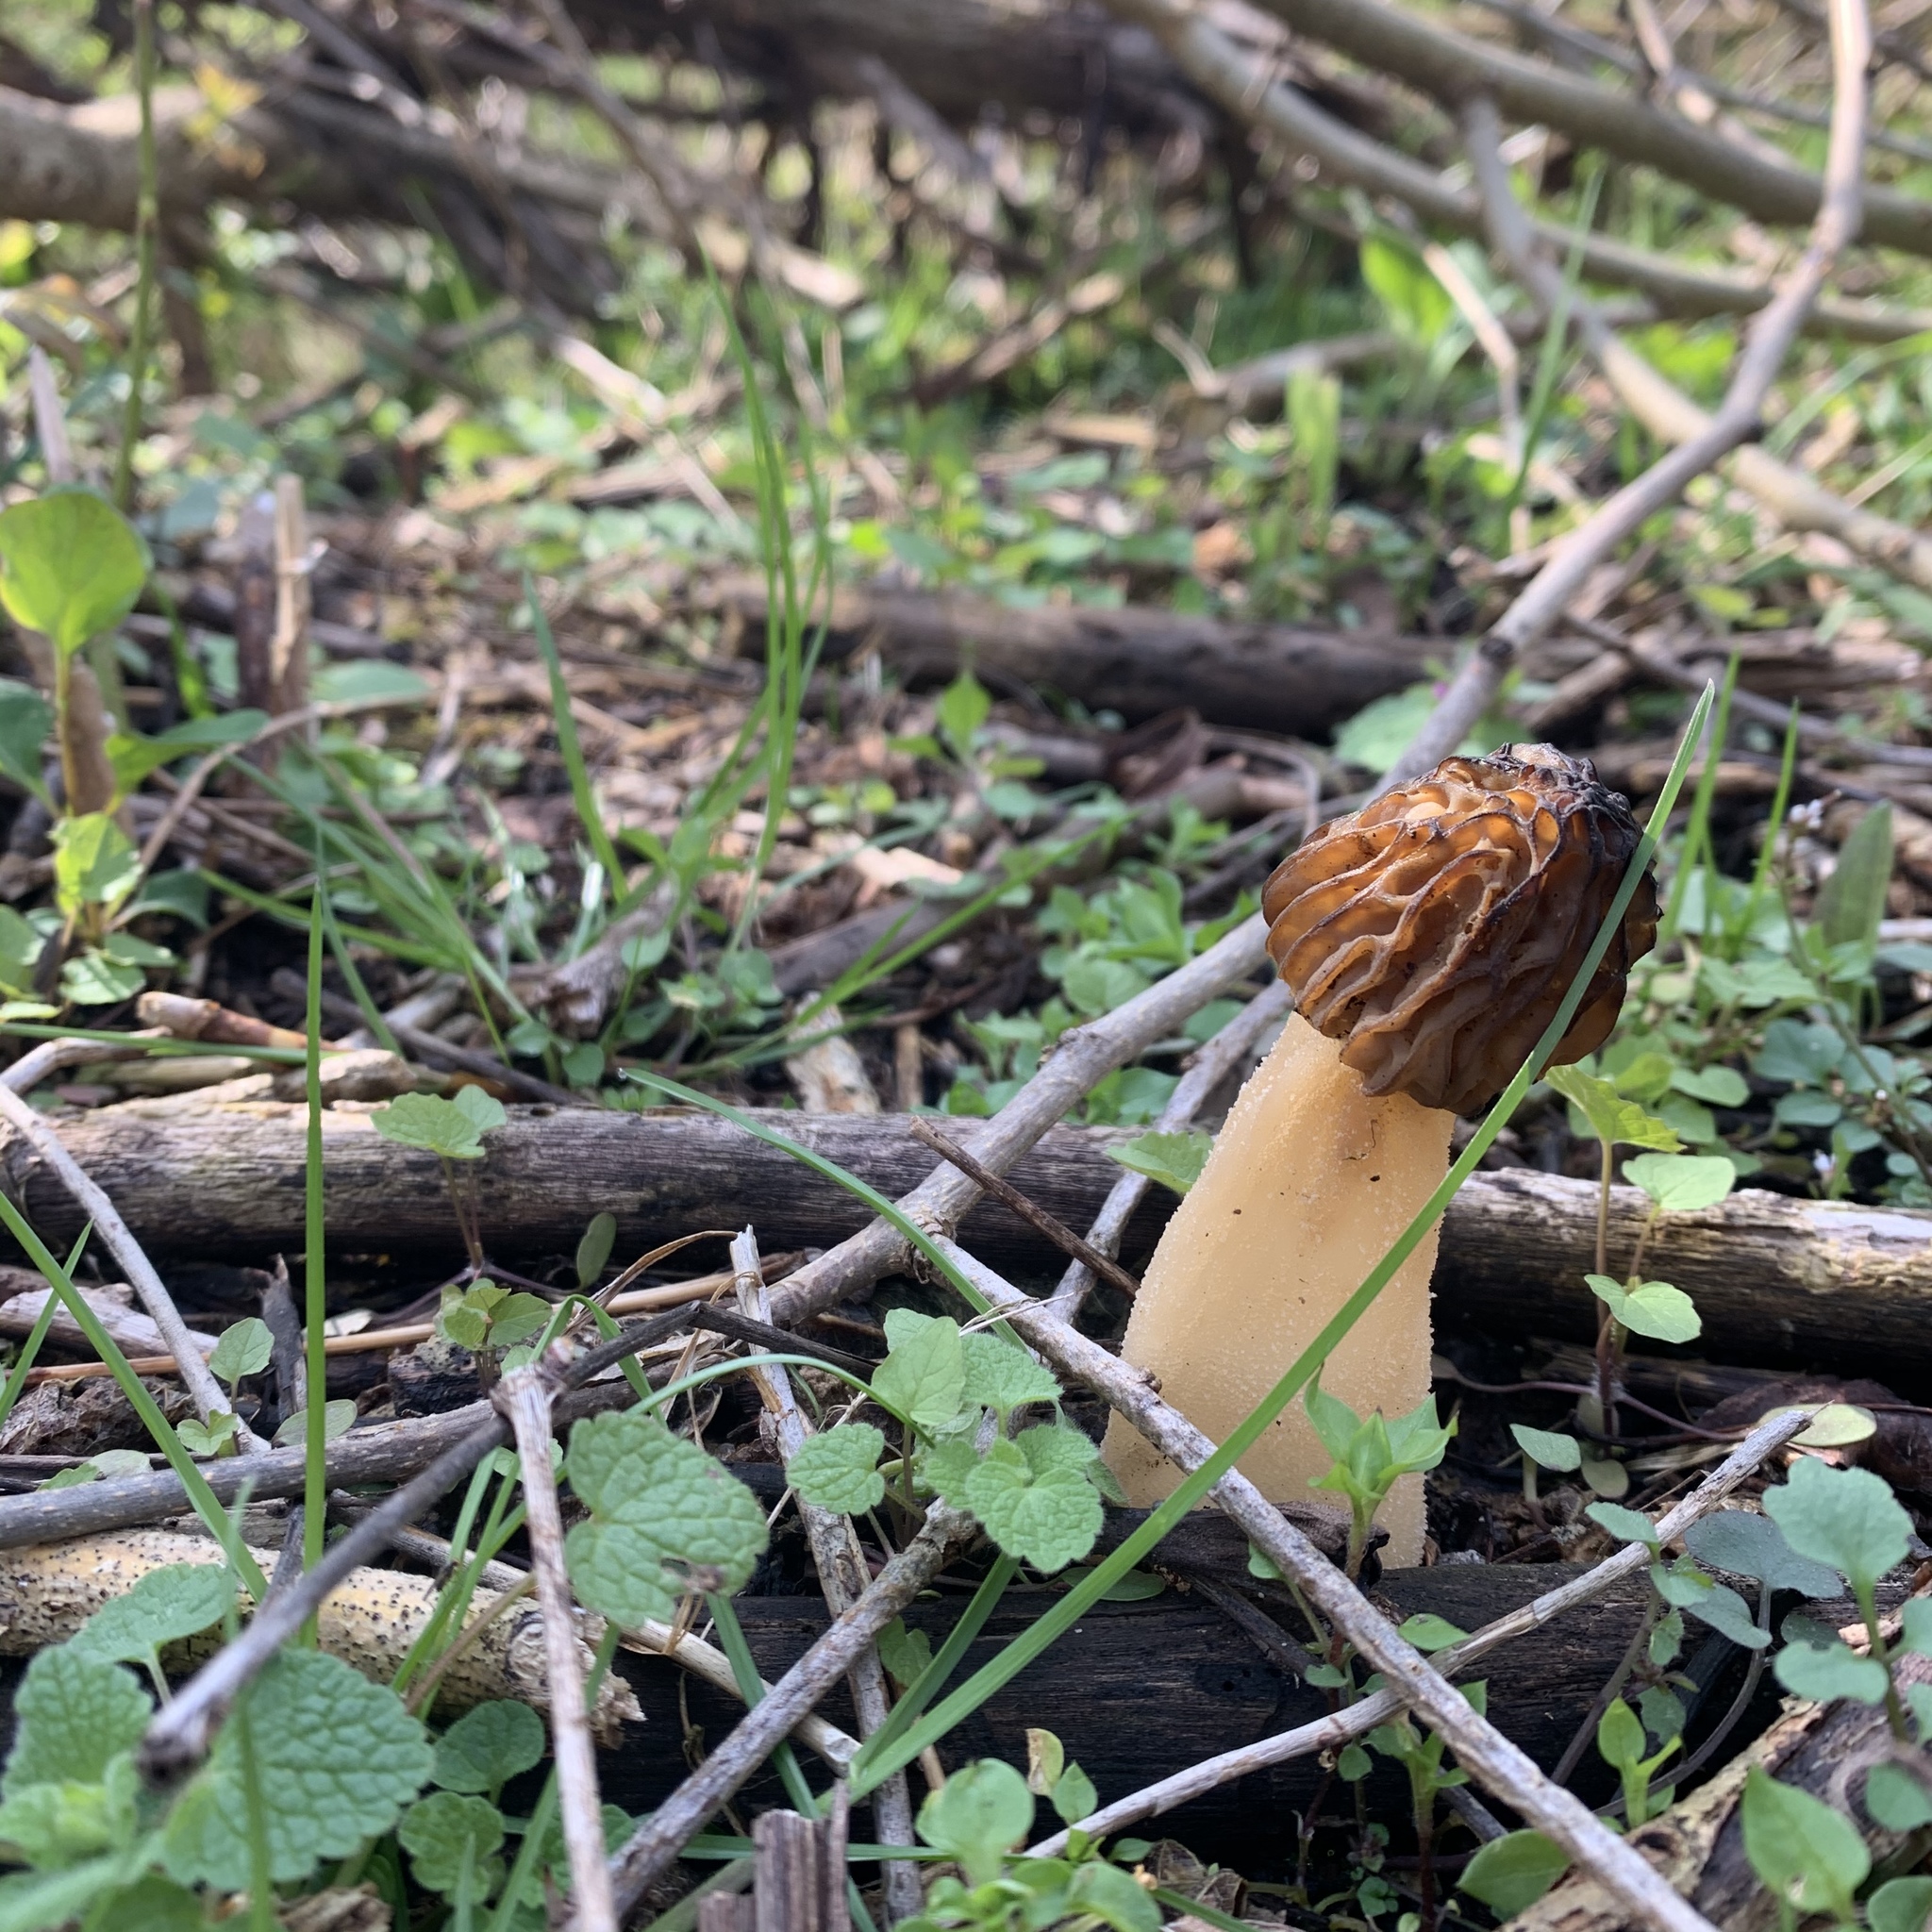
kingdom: Fungi
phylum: Ascomycota
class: Pezizomycetes
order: Pezizales
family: Morchellaceae
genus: Morchella
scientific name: Morchella punctipes
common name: Half-free morel
